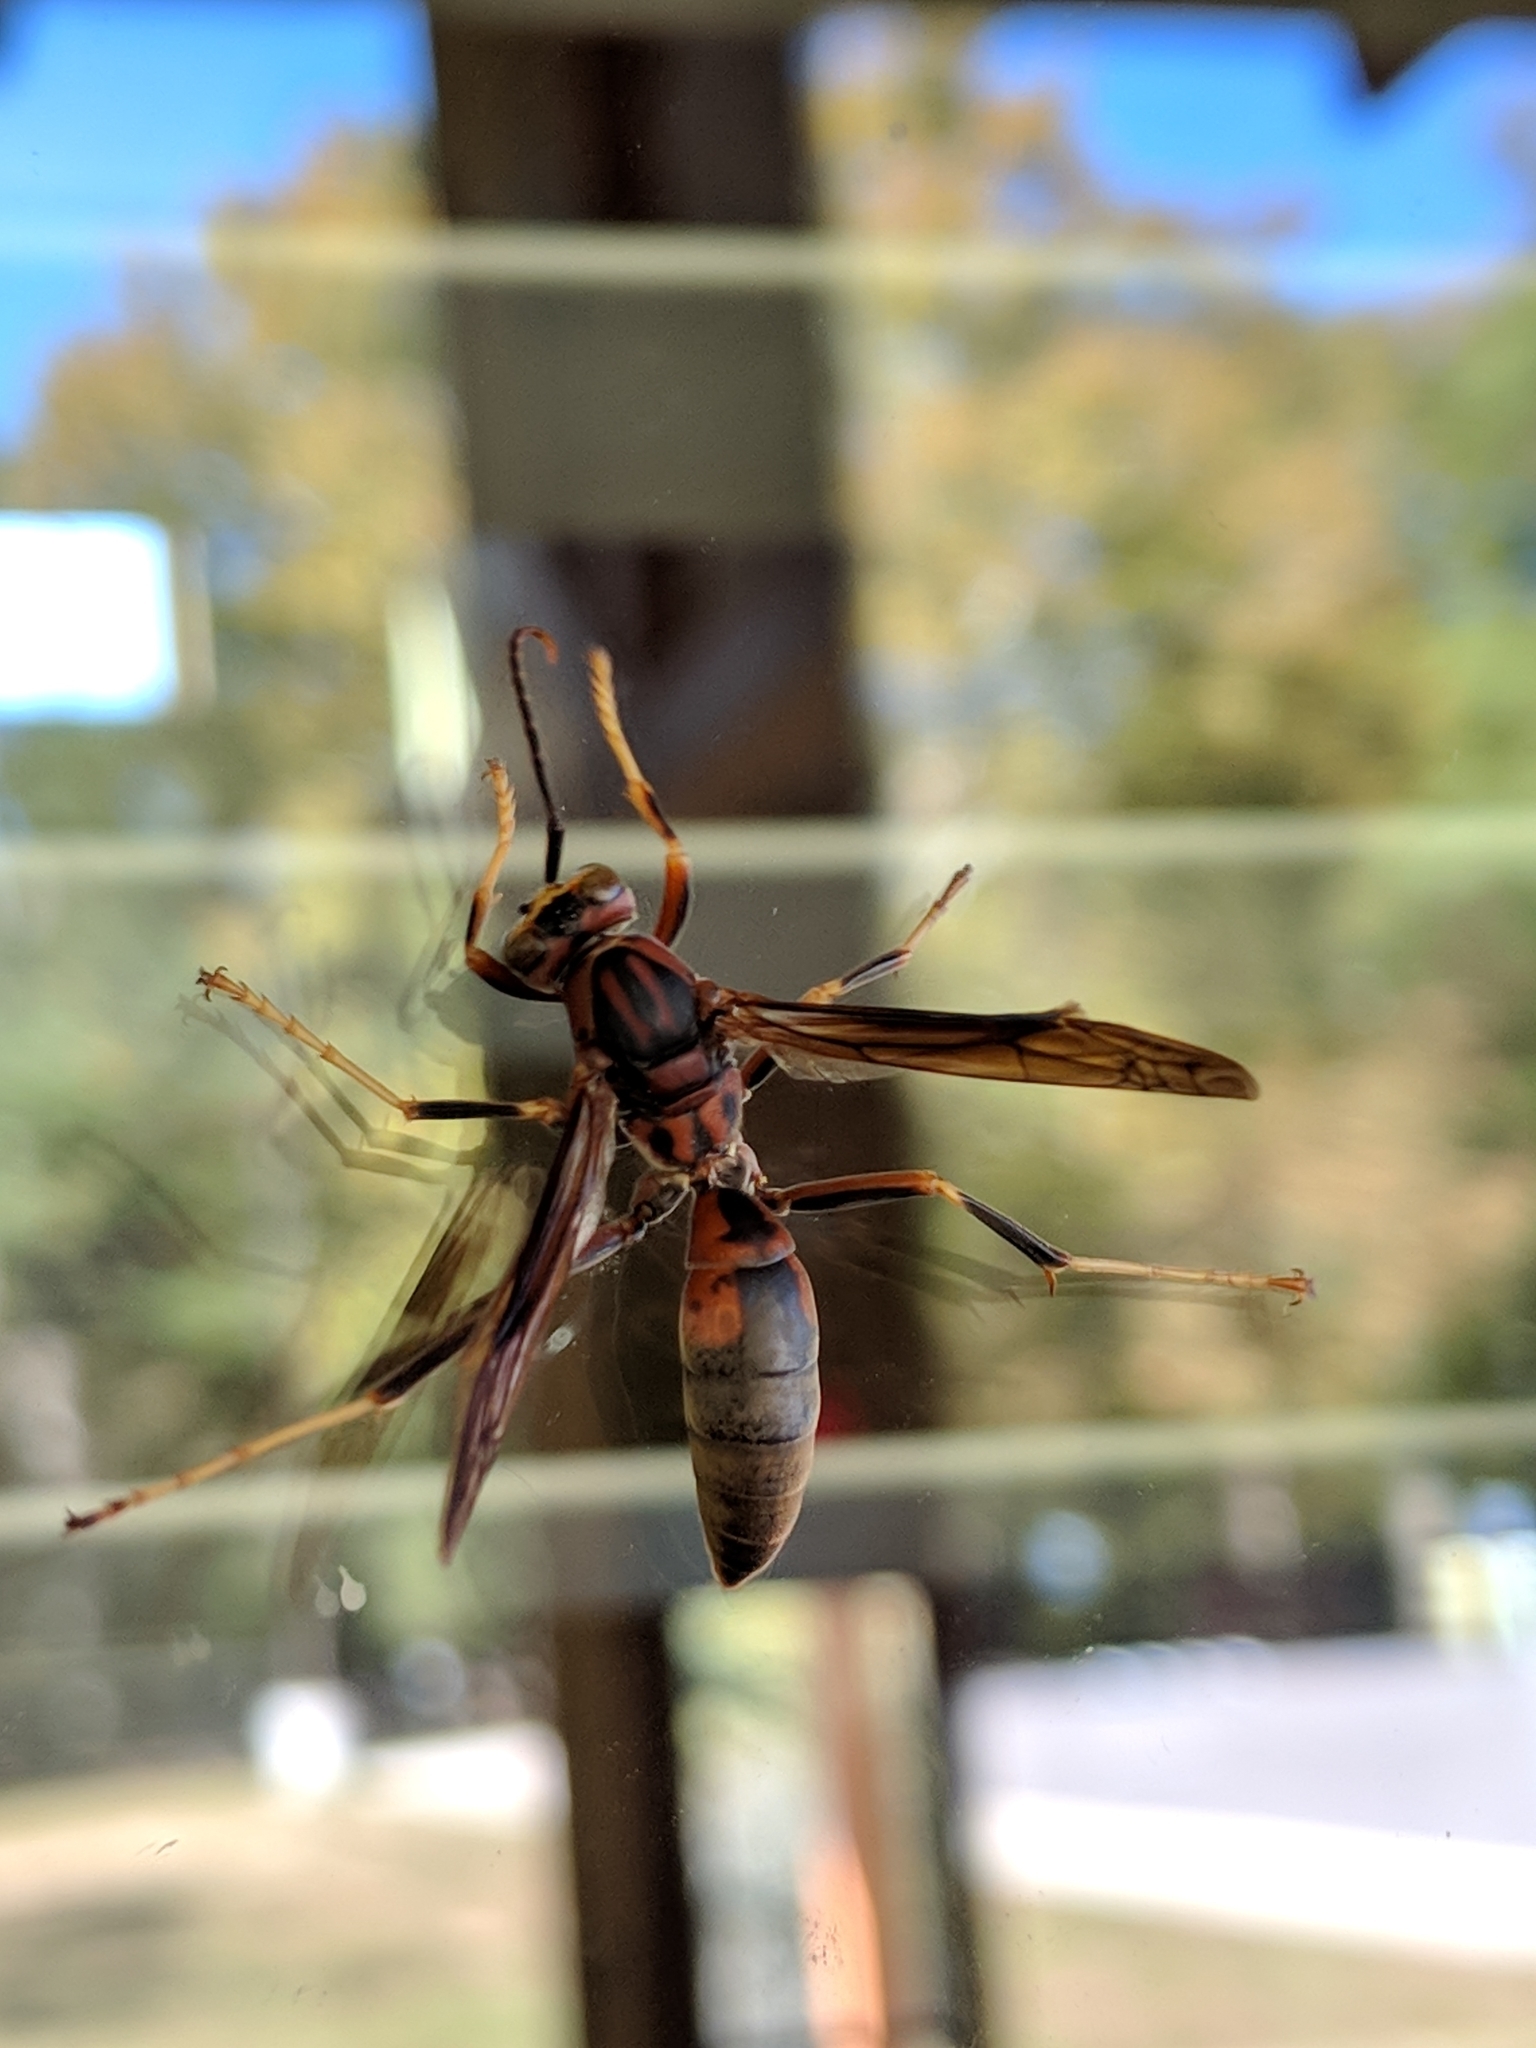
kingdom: Animalia
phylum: Arthropoda
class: Insecta
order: Hymenoptera
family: Eumenidae
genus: Polistes
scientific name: Polistes metricus
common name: Metric paper wasp
